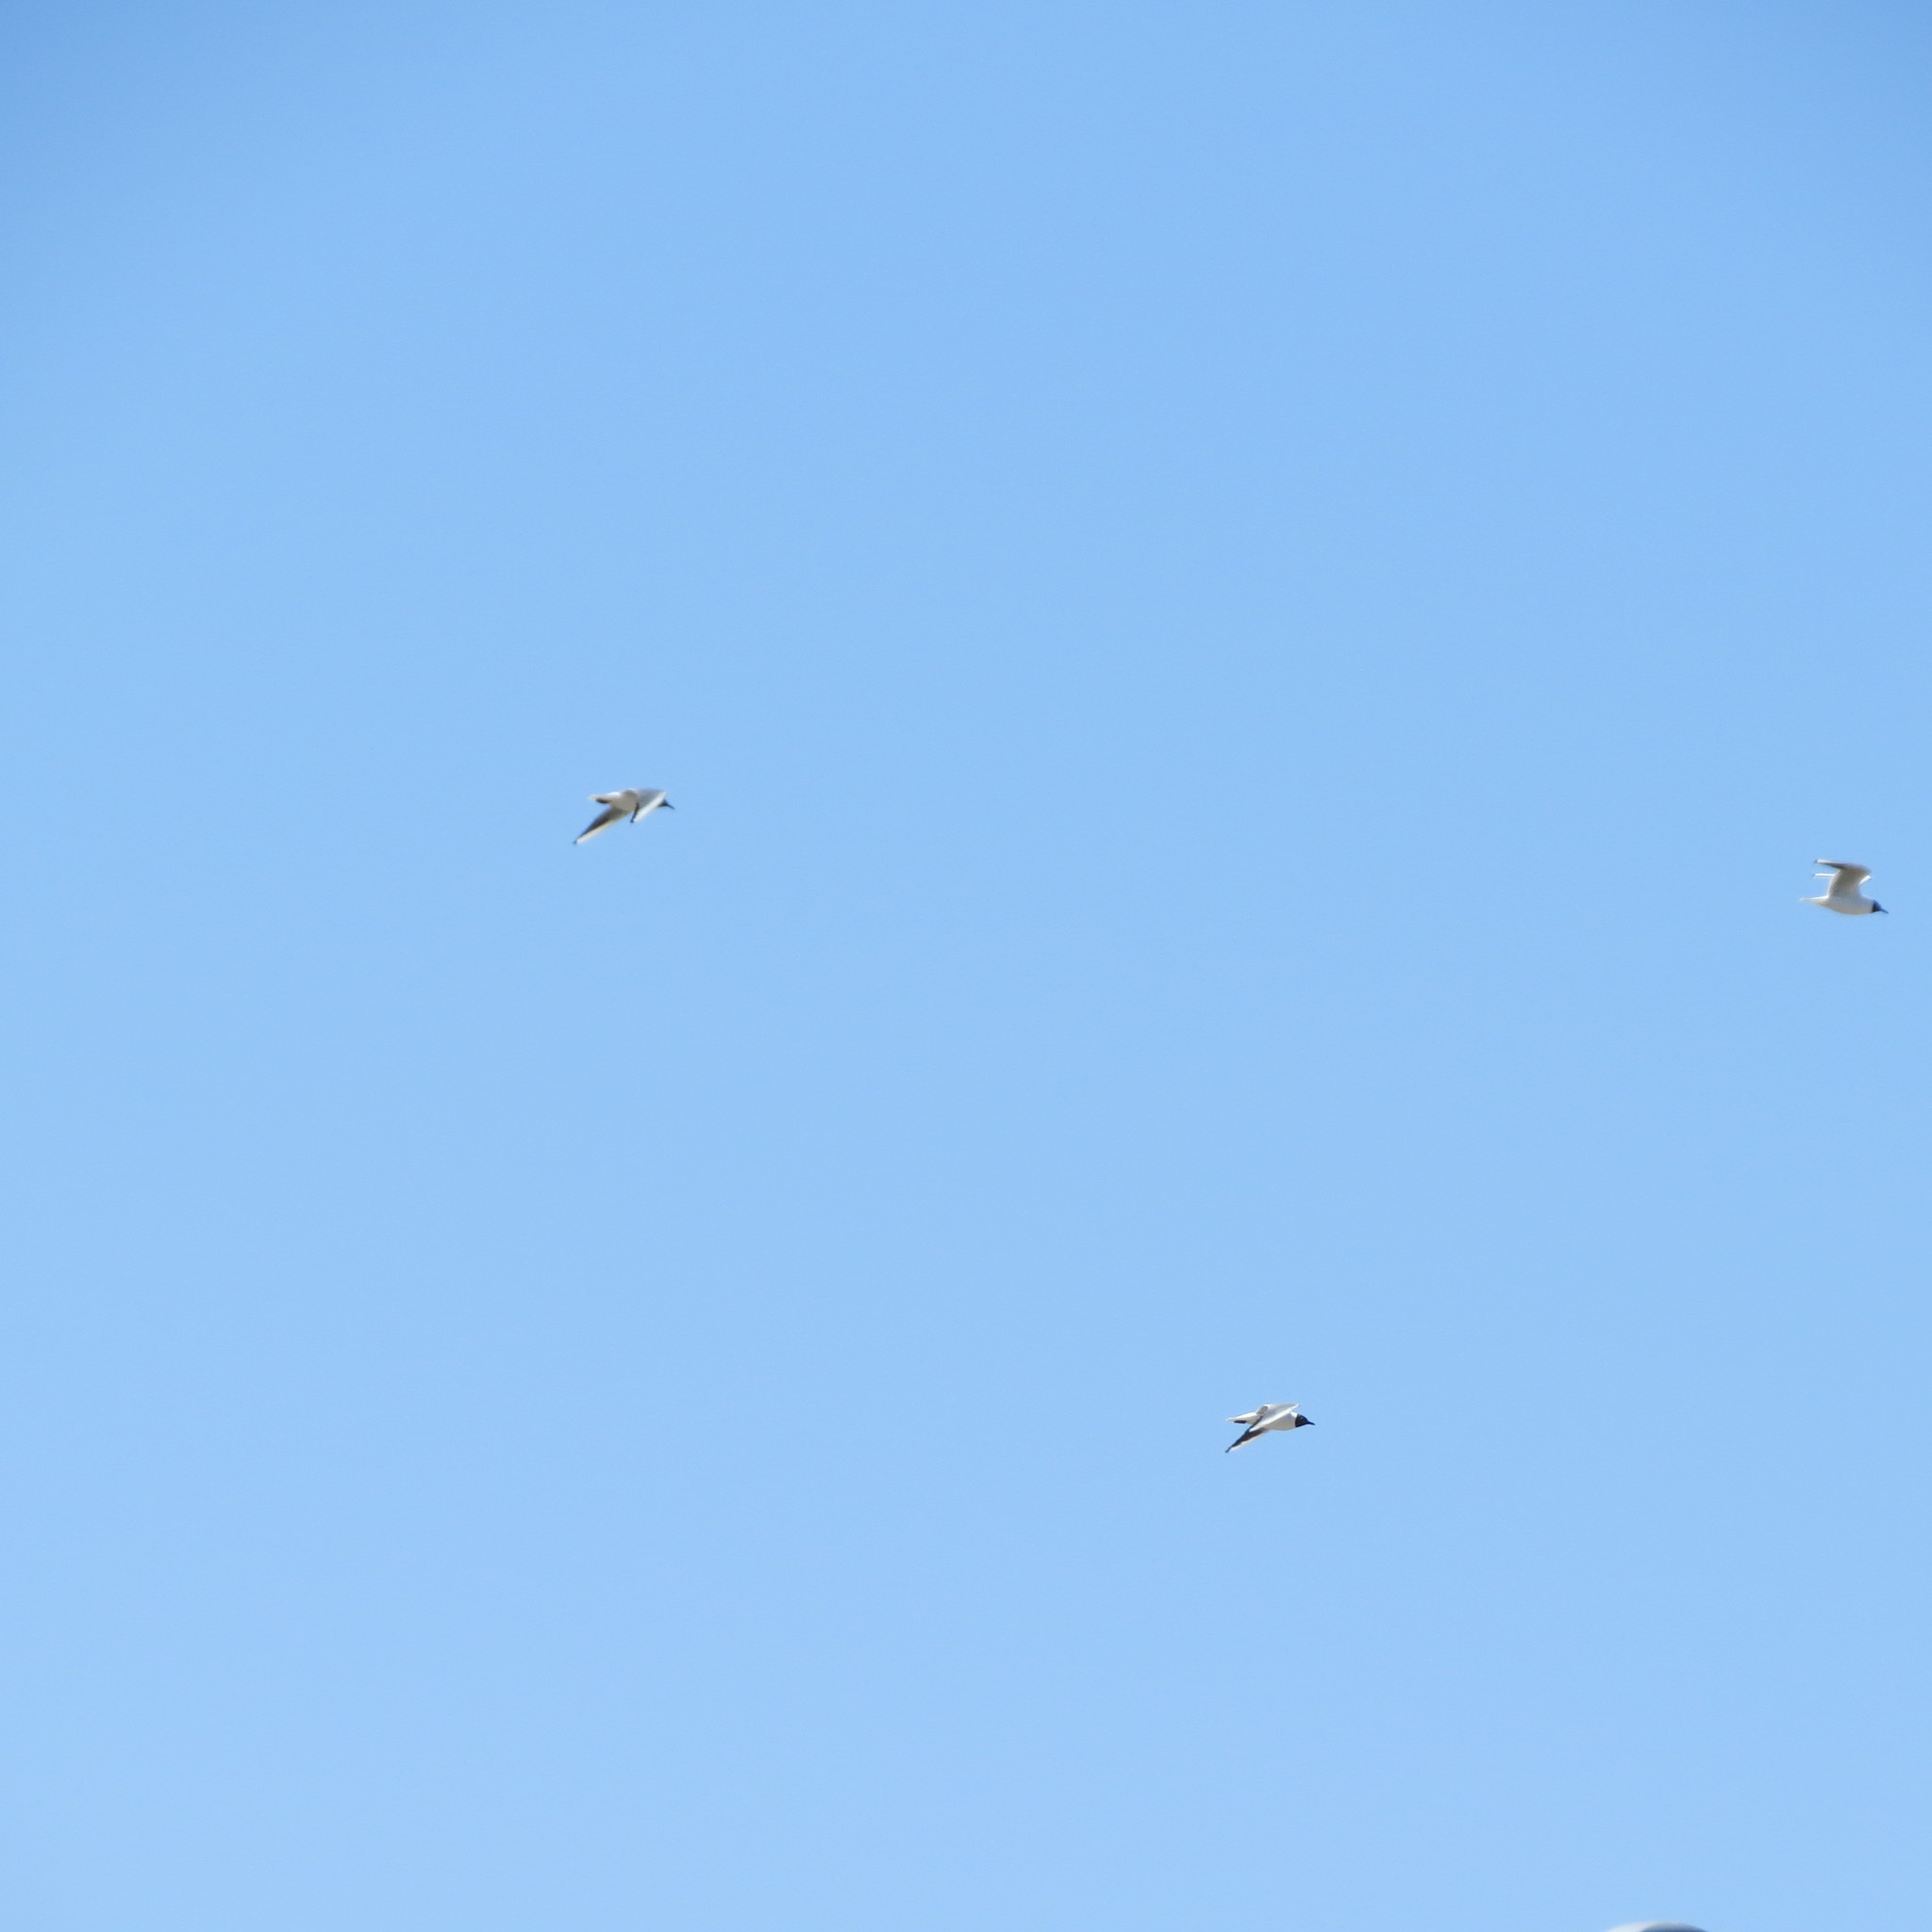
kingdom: Animalia
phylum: Chordata
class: Aves
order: Charadriiformes
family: Laridae
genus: Chroicocephalus
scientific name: Chroicocephalus ridibundus
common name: Black-headed gull
